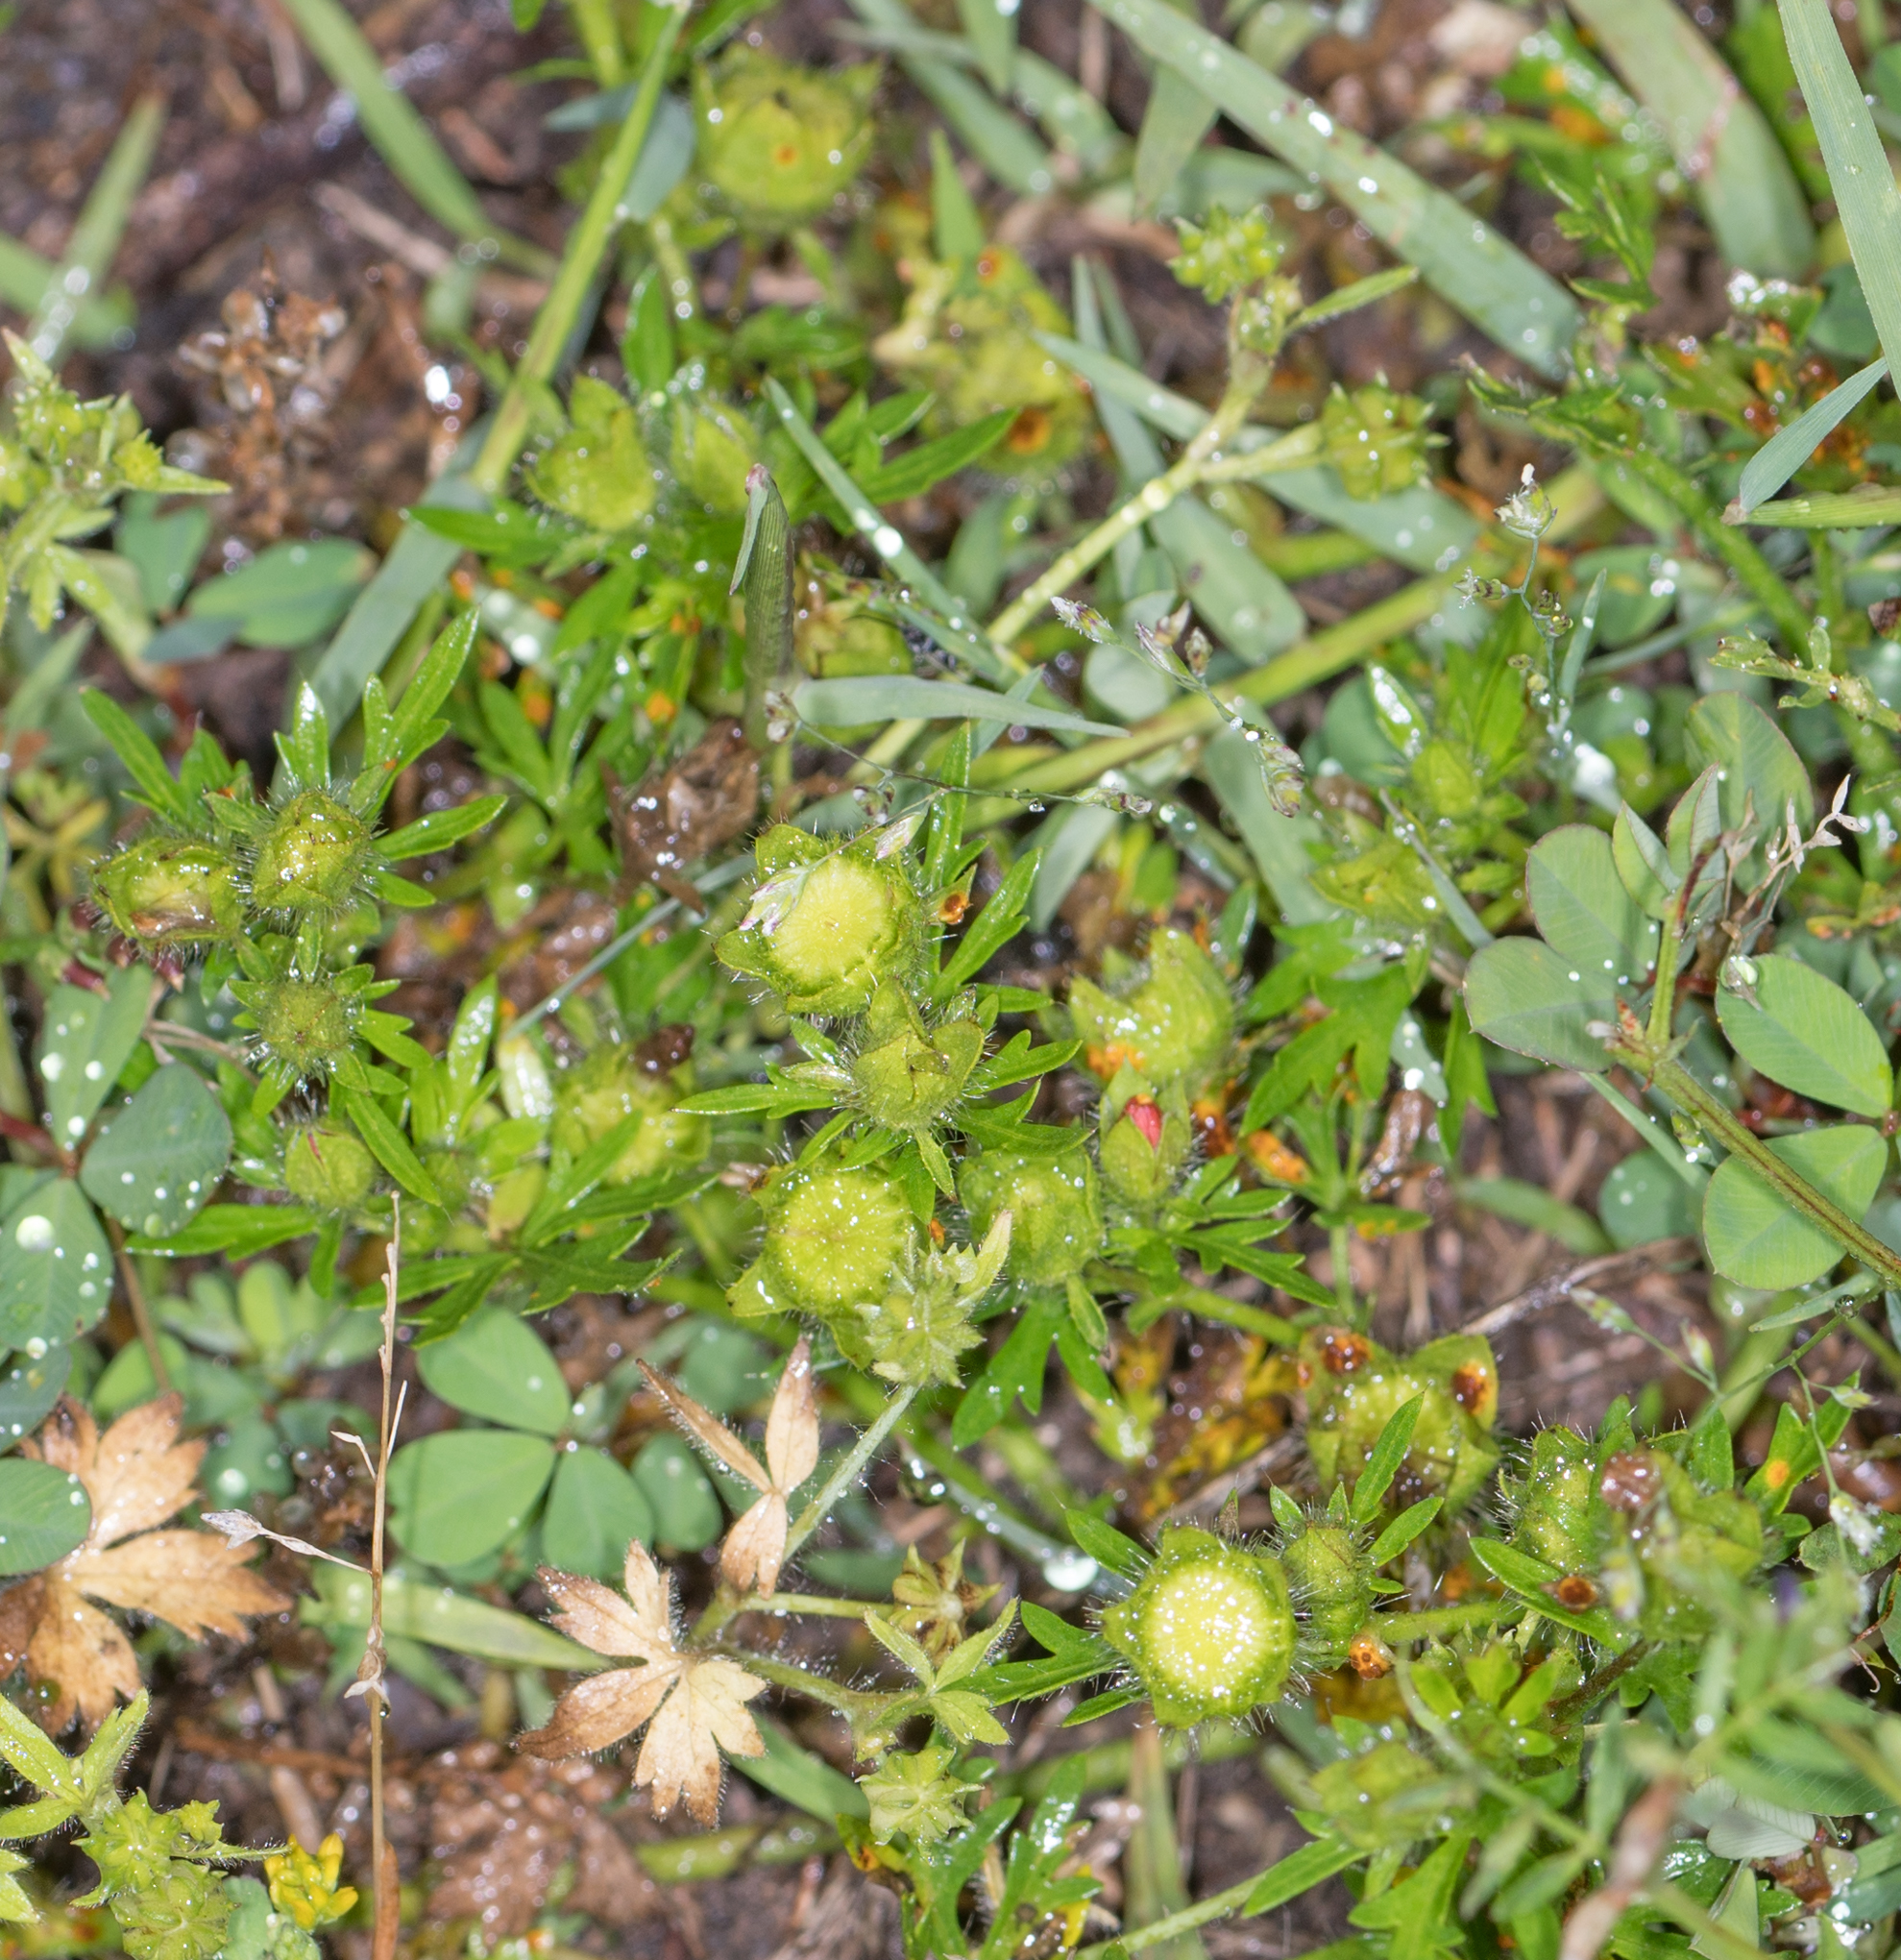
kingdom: Plantae
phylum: Tracheophyta
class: Magnoliopsida
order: Malvales
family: Malvaceae
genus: Modiola
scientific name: Modiola caroliniana
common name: Carolina bristlemallow
